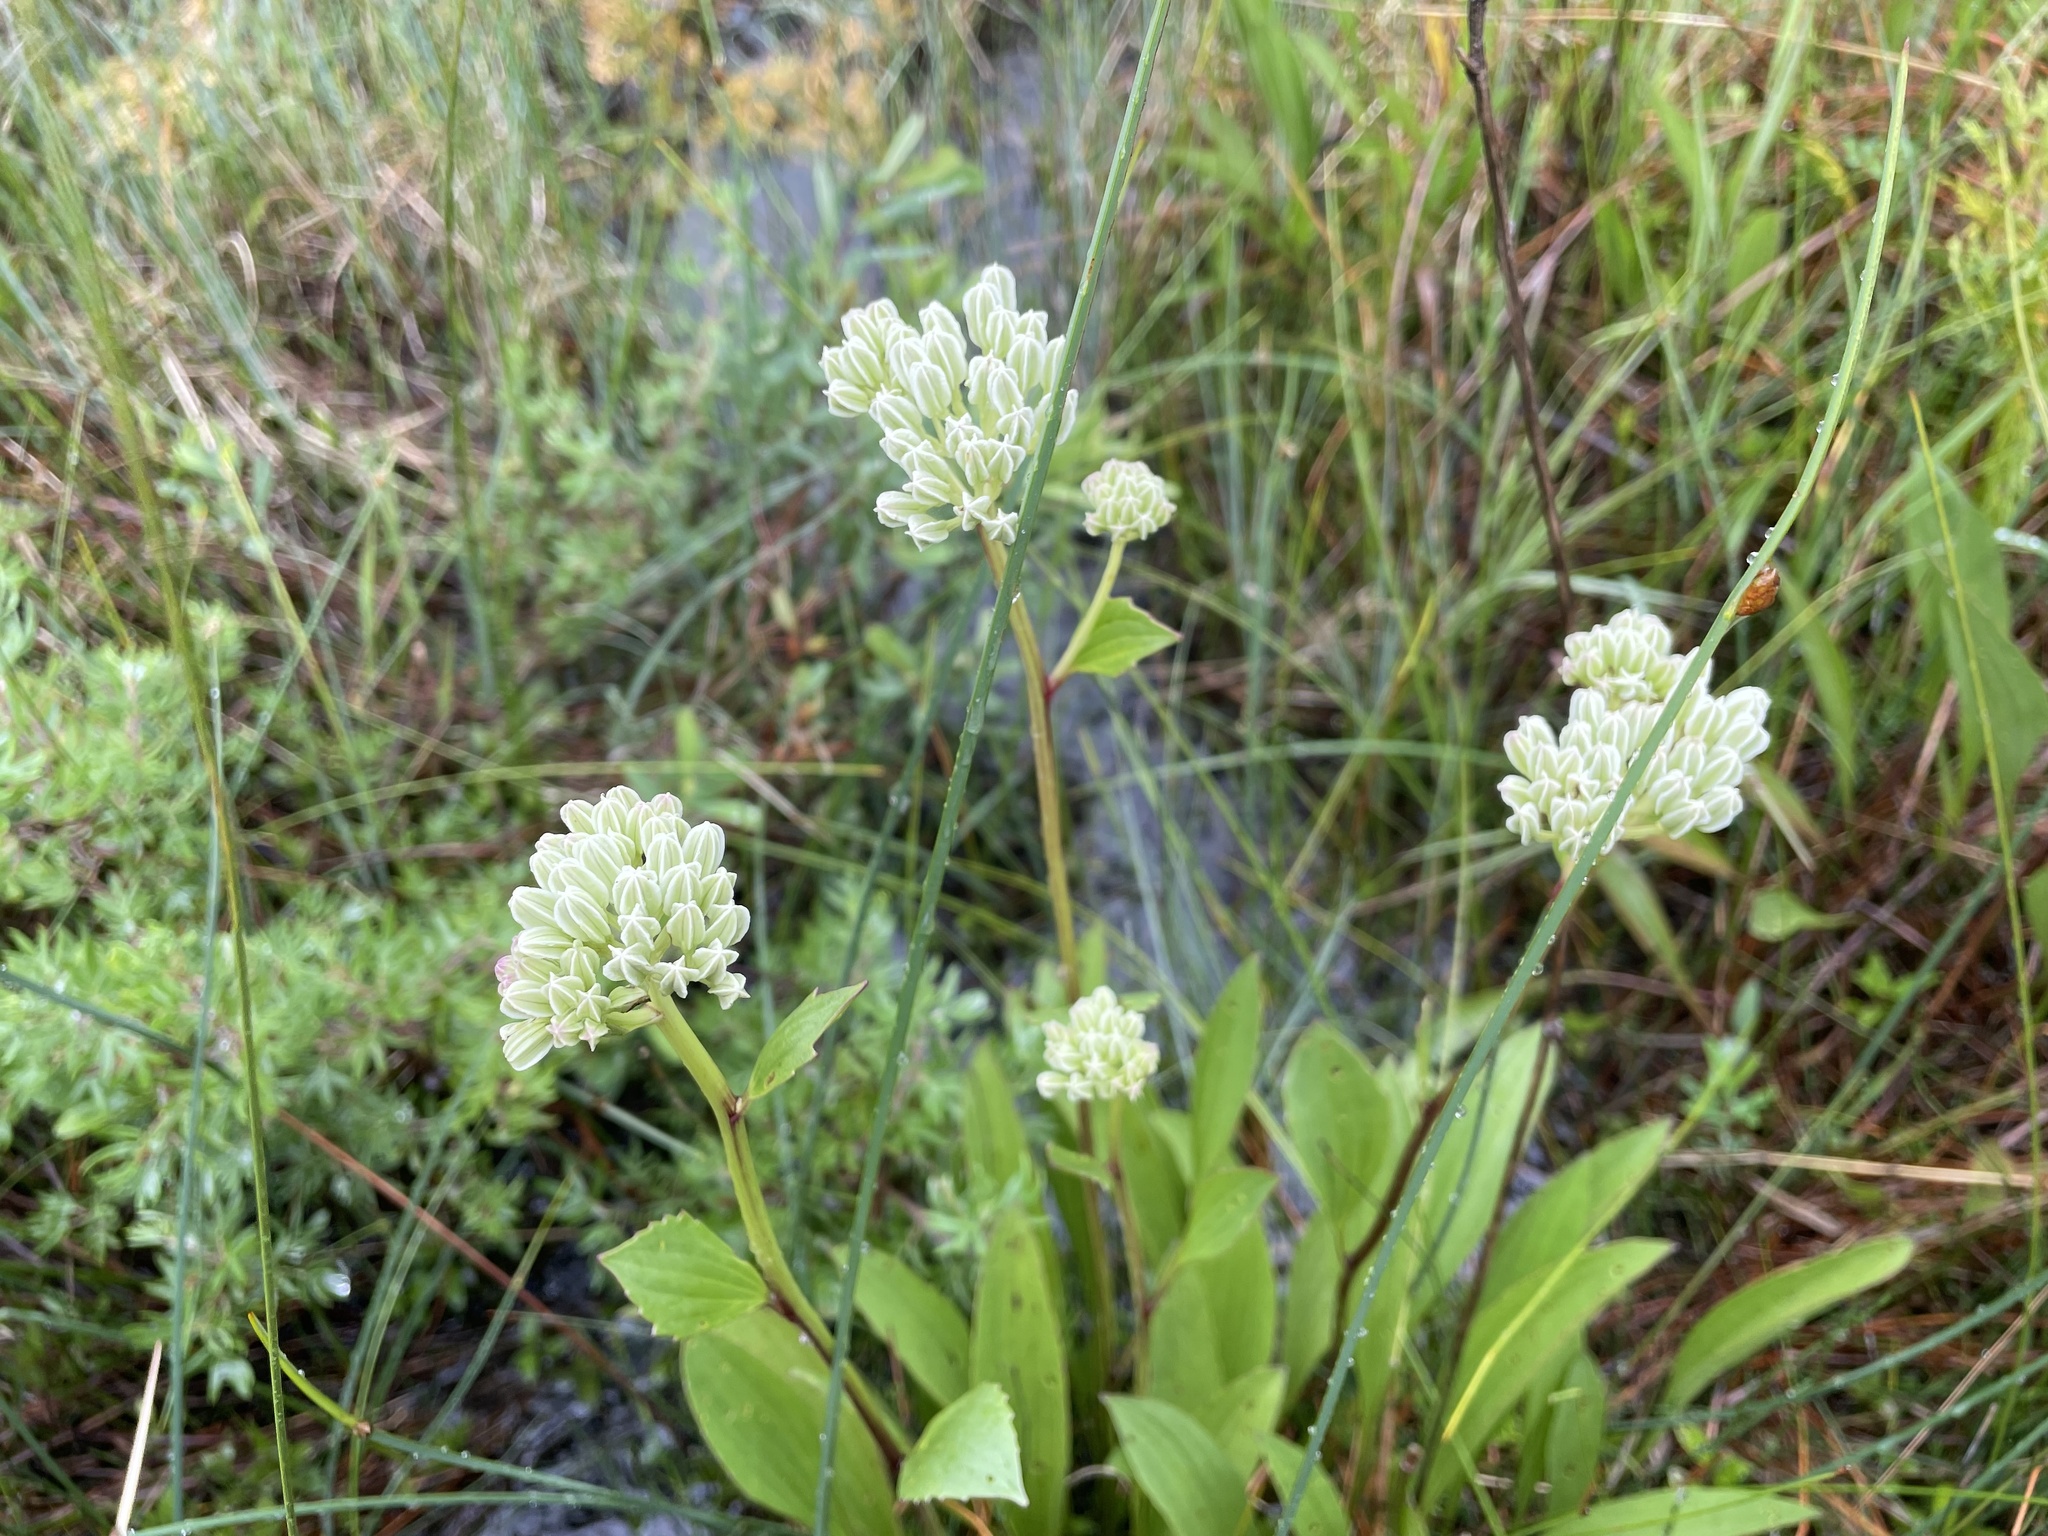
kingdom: Plantae
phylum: Tracheophyta
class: Magnoliopsida
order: Asterales
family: Asteraceae
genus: Arnoglossum
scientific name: Arnoglossum plantagineum
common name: Groove-stemmed indian-plantain
